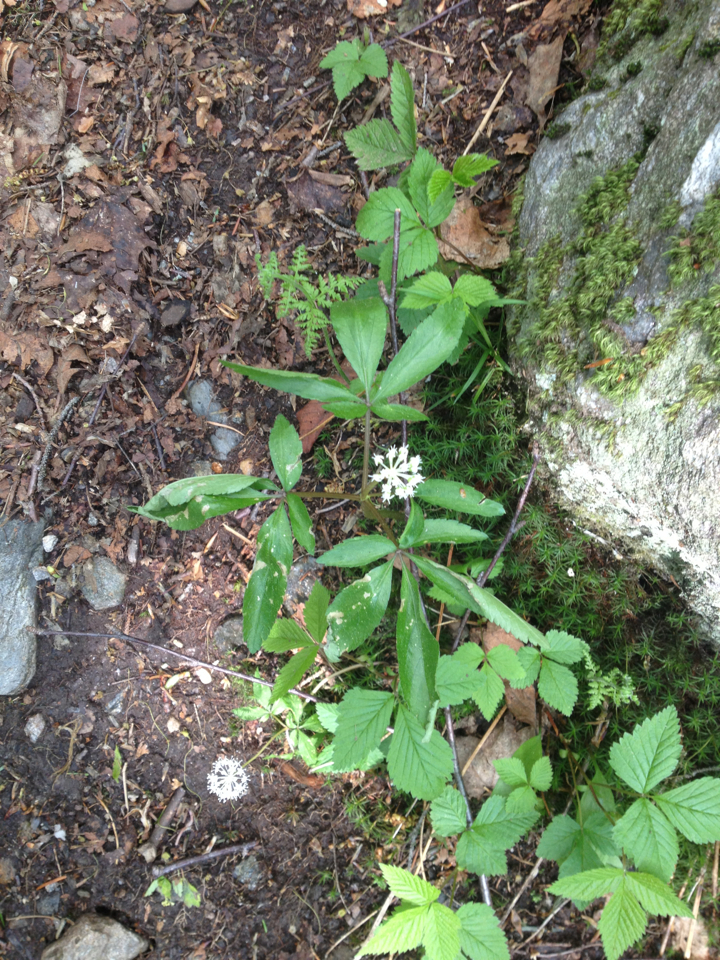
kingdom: Plantae
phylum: Tracheophyta
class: Magnoliopsida
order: Apiales
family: Araliaceae
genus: Panax
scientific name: Panax trifolius
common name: Dwarf ginseng
